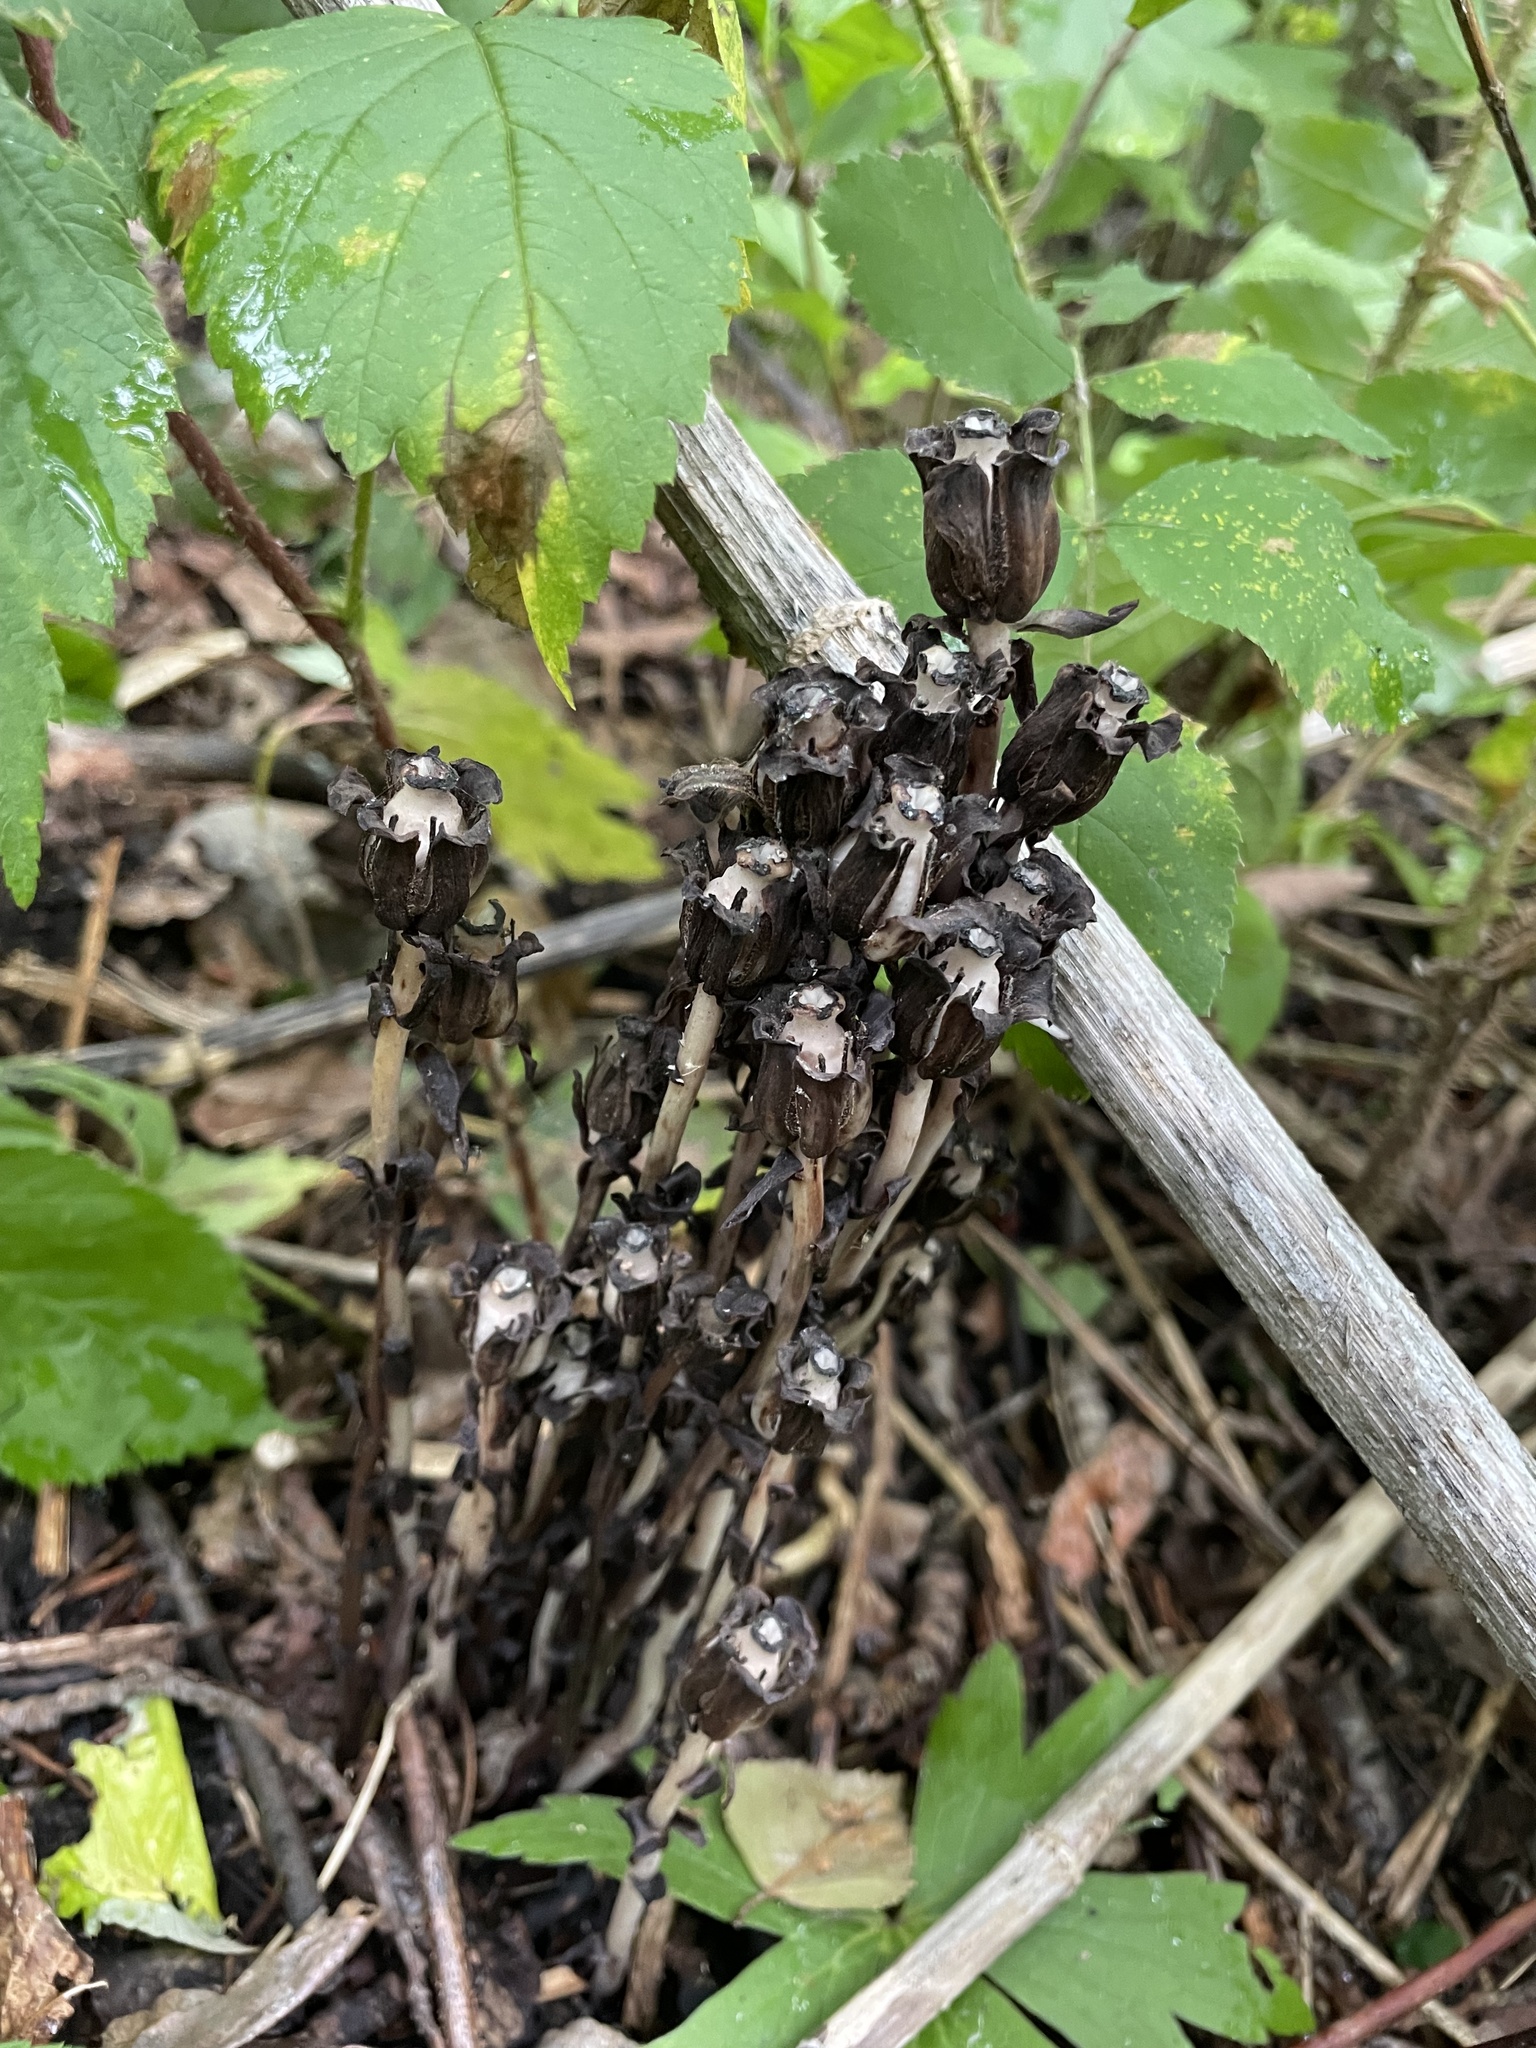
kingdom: Plantae
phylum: Tracheophyta
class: Magnoliopsida
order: Ericales
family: Ericaceae
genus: Monotropa
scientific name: Monotropa uniflora
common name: Convulsion root
